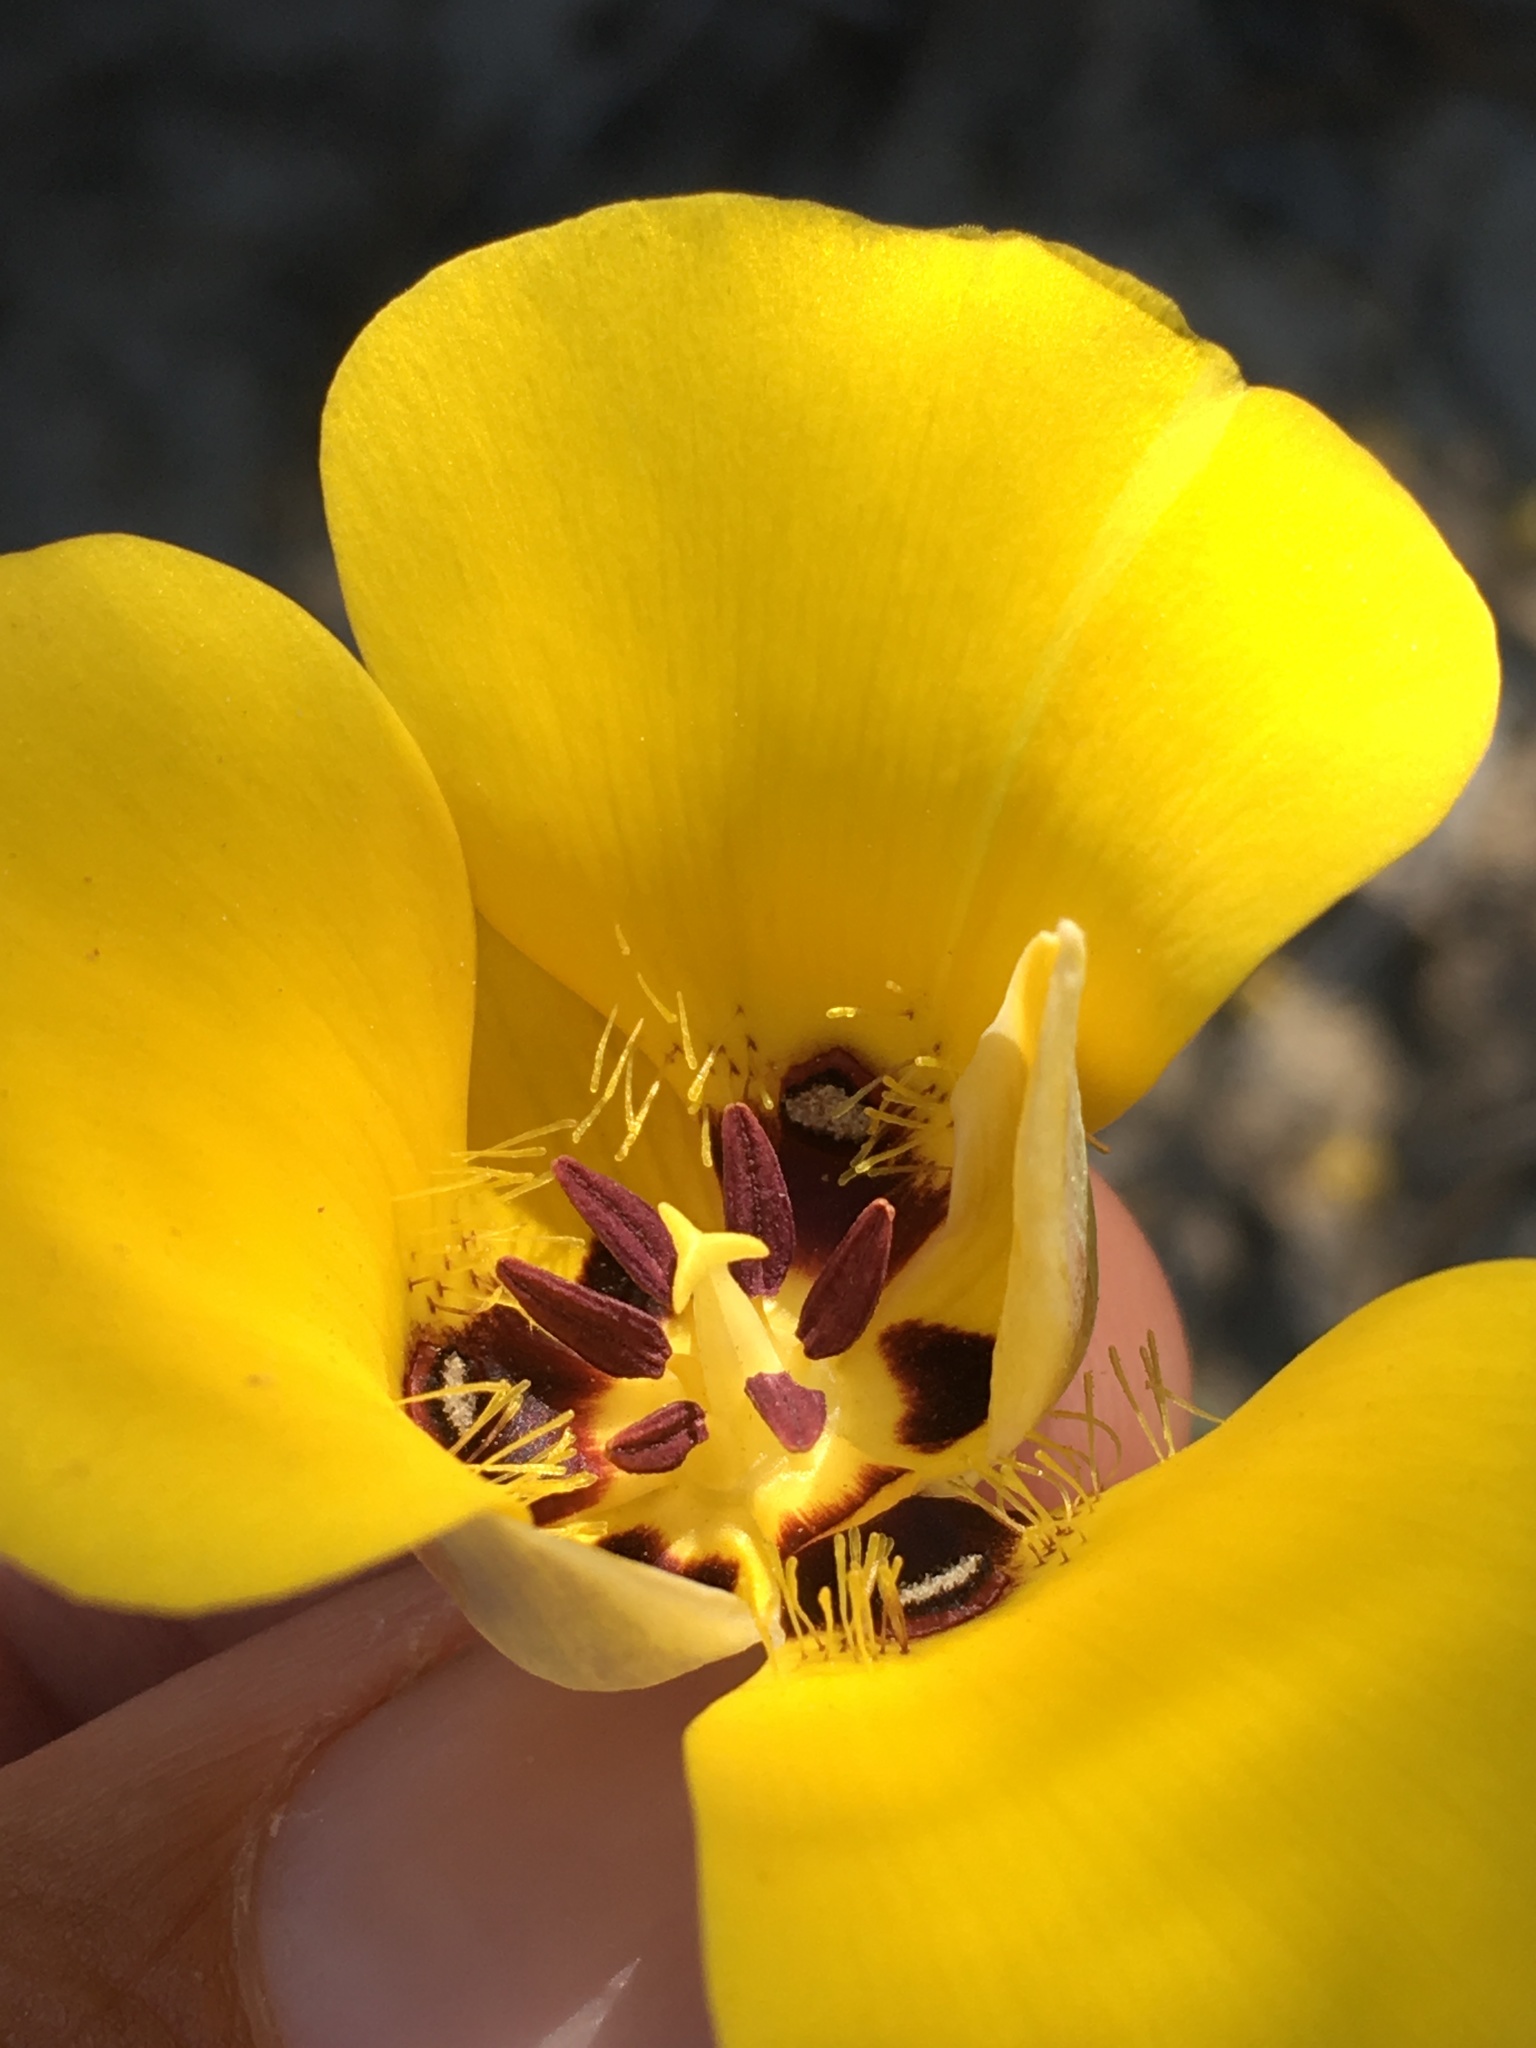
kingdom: Plantae
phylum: Tracheophyta
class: Liliopsida
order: Liliales
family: Liliaceae
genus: Calochortus
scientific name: Calochortus kennedyi
